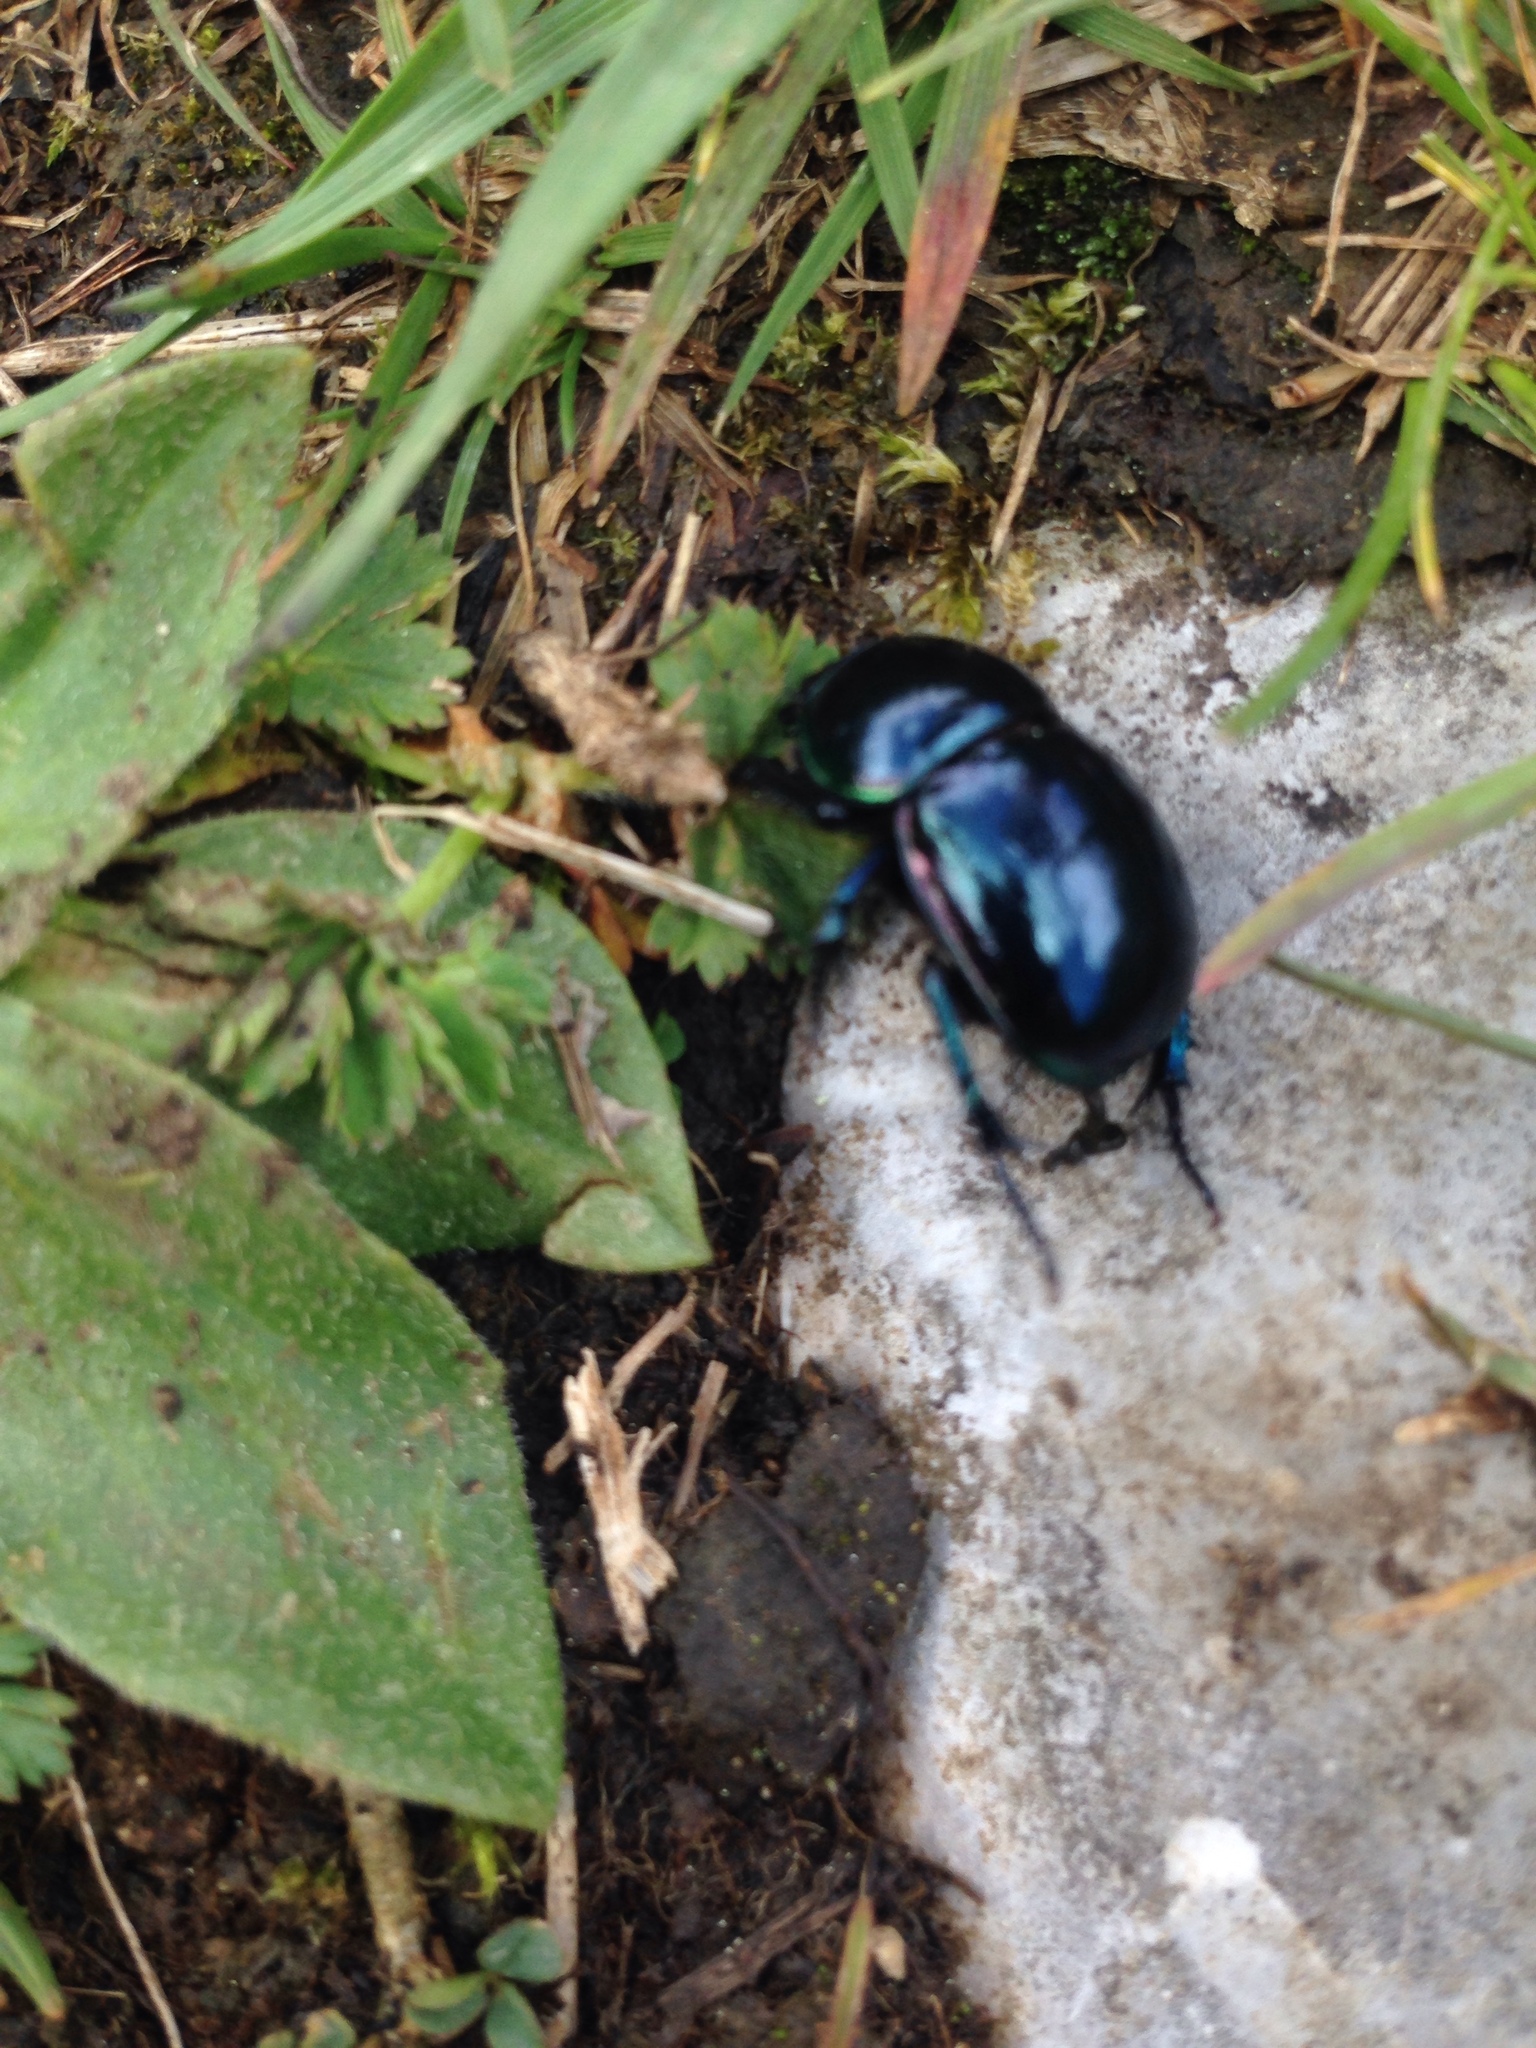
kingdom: Animalia
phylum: Arthropoda
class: Insecta
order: Coleoptera
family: Geotrupidae
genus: Trypocopris
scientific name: Trypocopris vernalis
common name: Spring dumbledor
